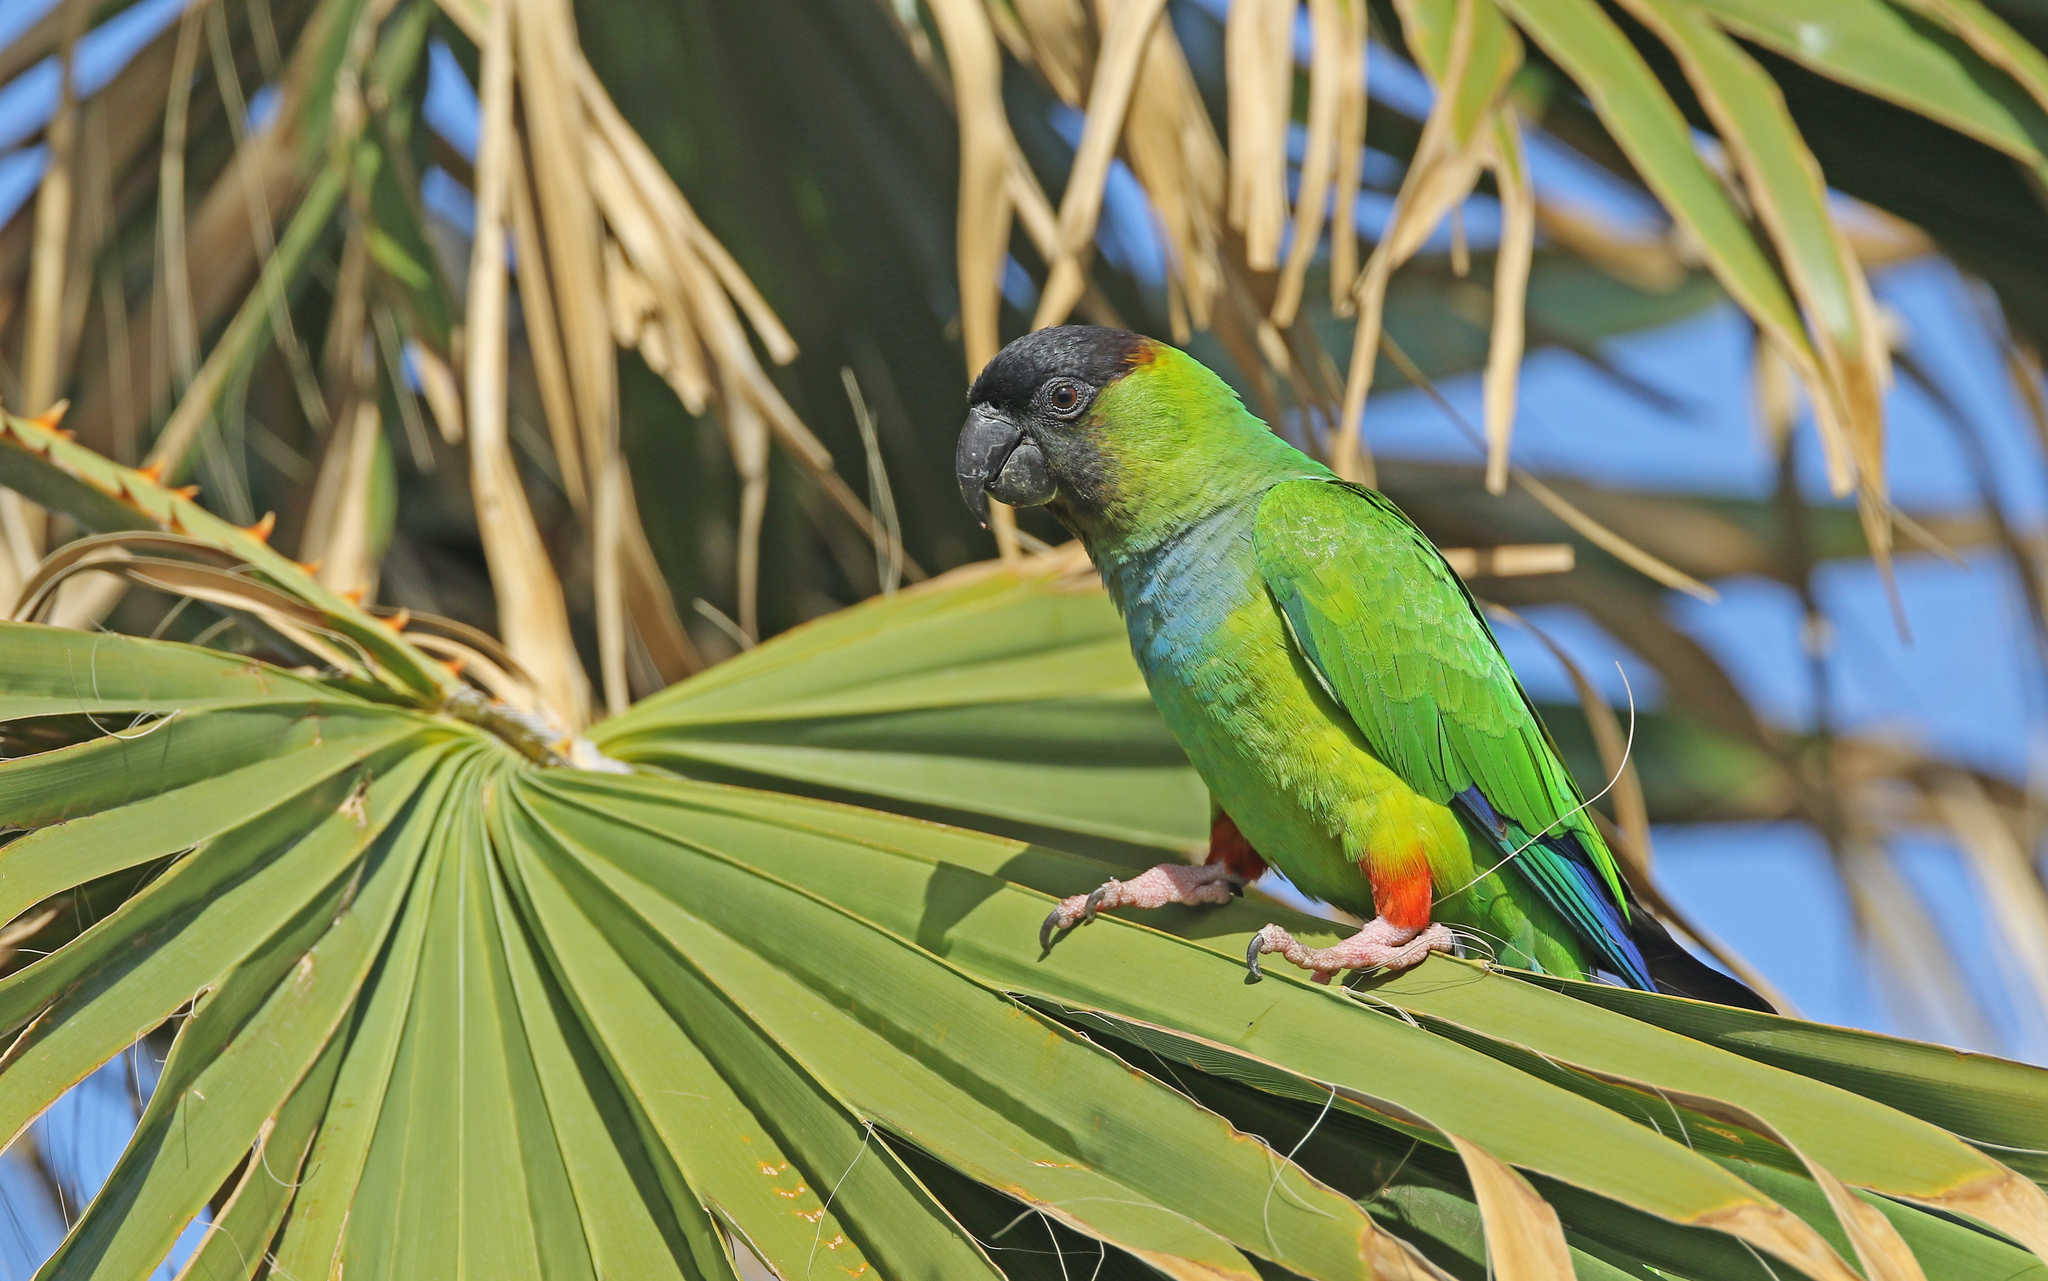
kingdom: Animalia
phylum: Chordata
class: Aves
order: Psittaciformes
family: Psittacidae
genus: Nandayus
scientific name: Nandayus nenday
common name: Nanday parakeet
